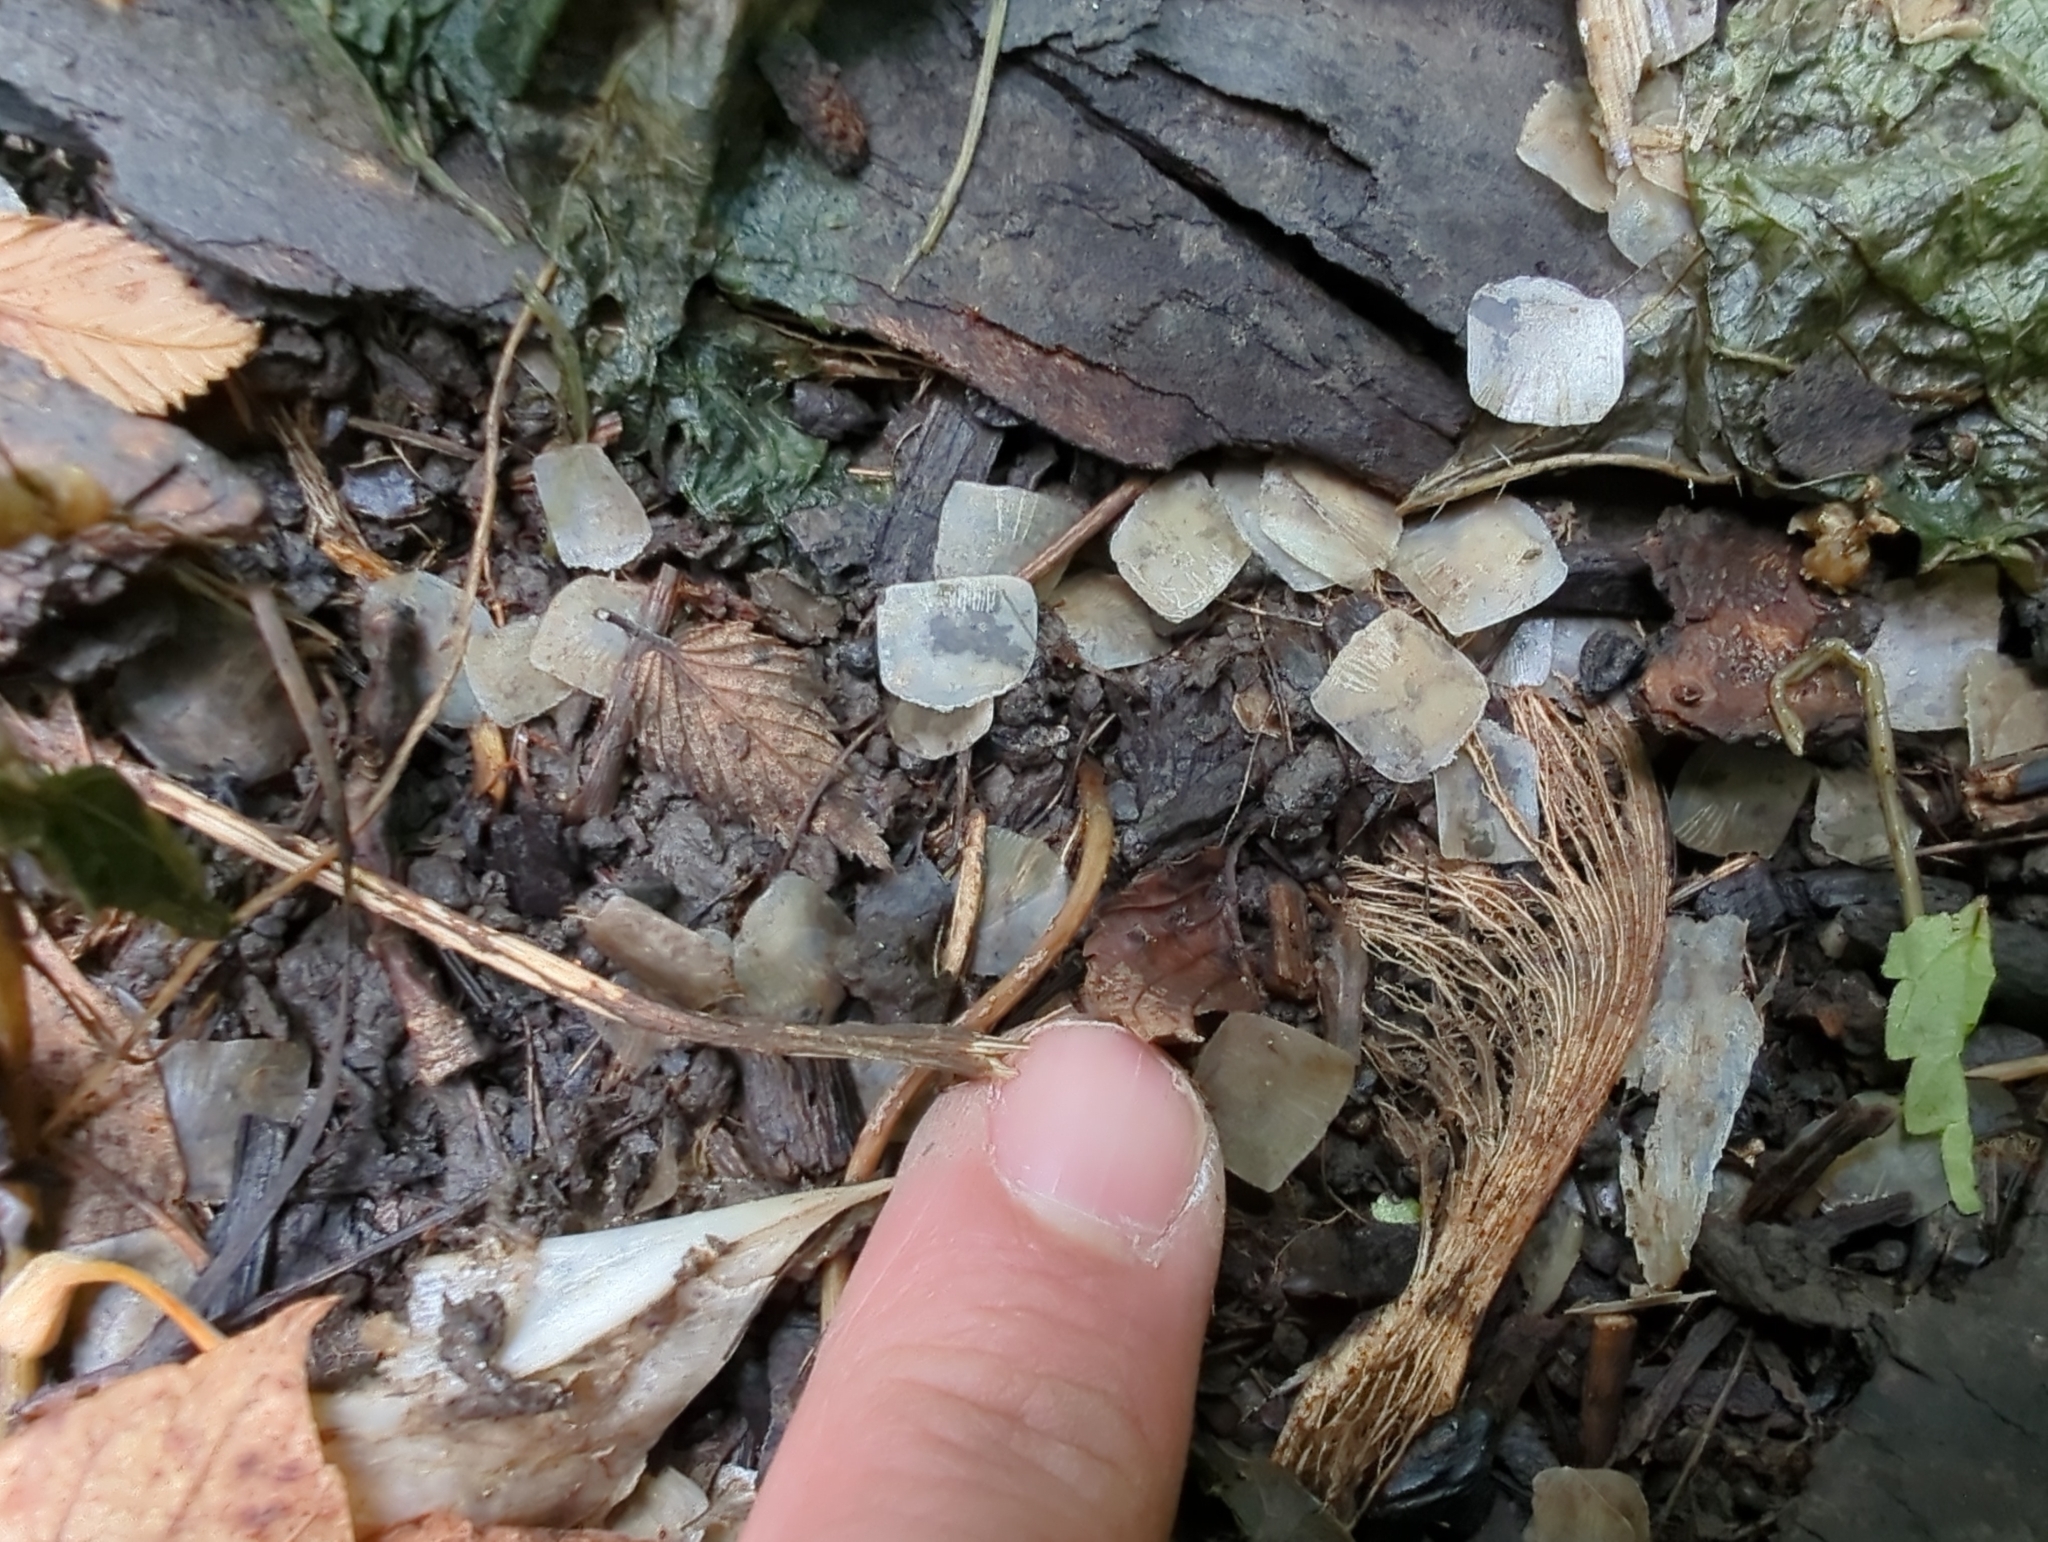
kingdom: Animalia
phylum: Chordata
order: Perciformes
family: Sciaenidae
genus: Aplodinotus
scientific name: Aplodinotus grunniens
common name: Freshwater drum
